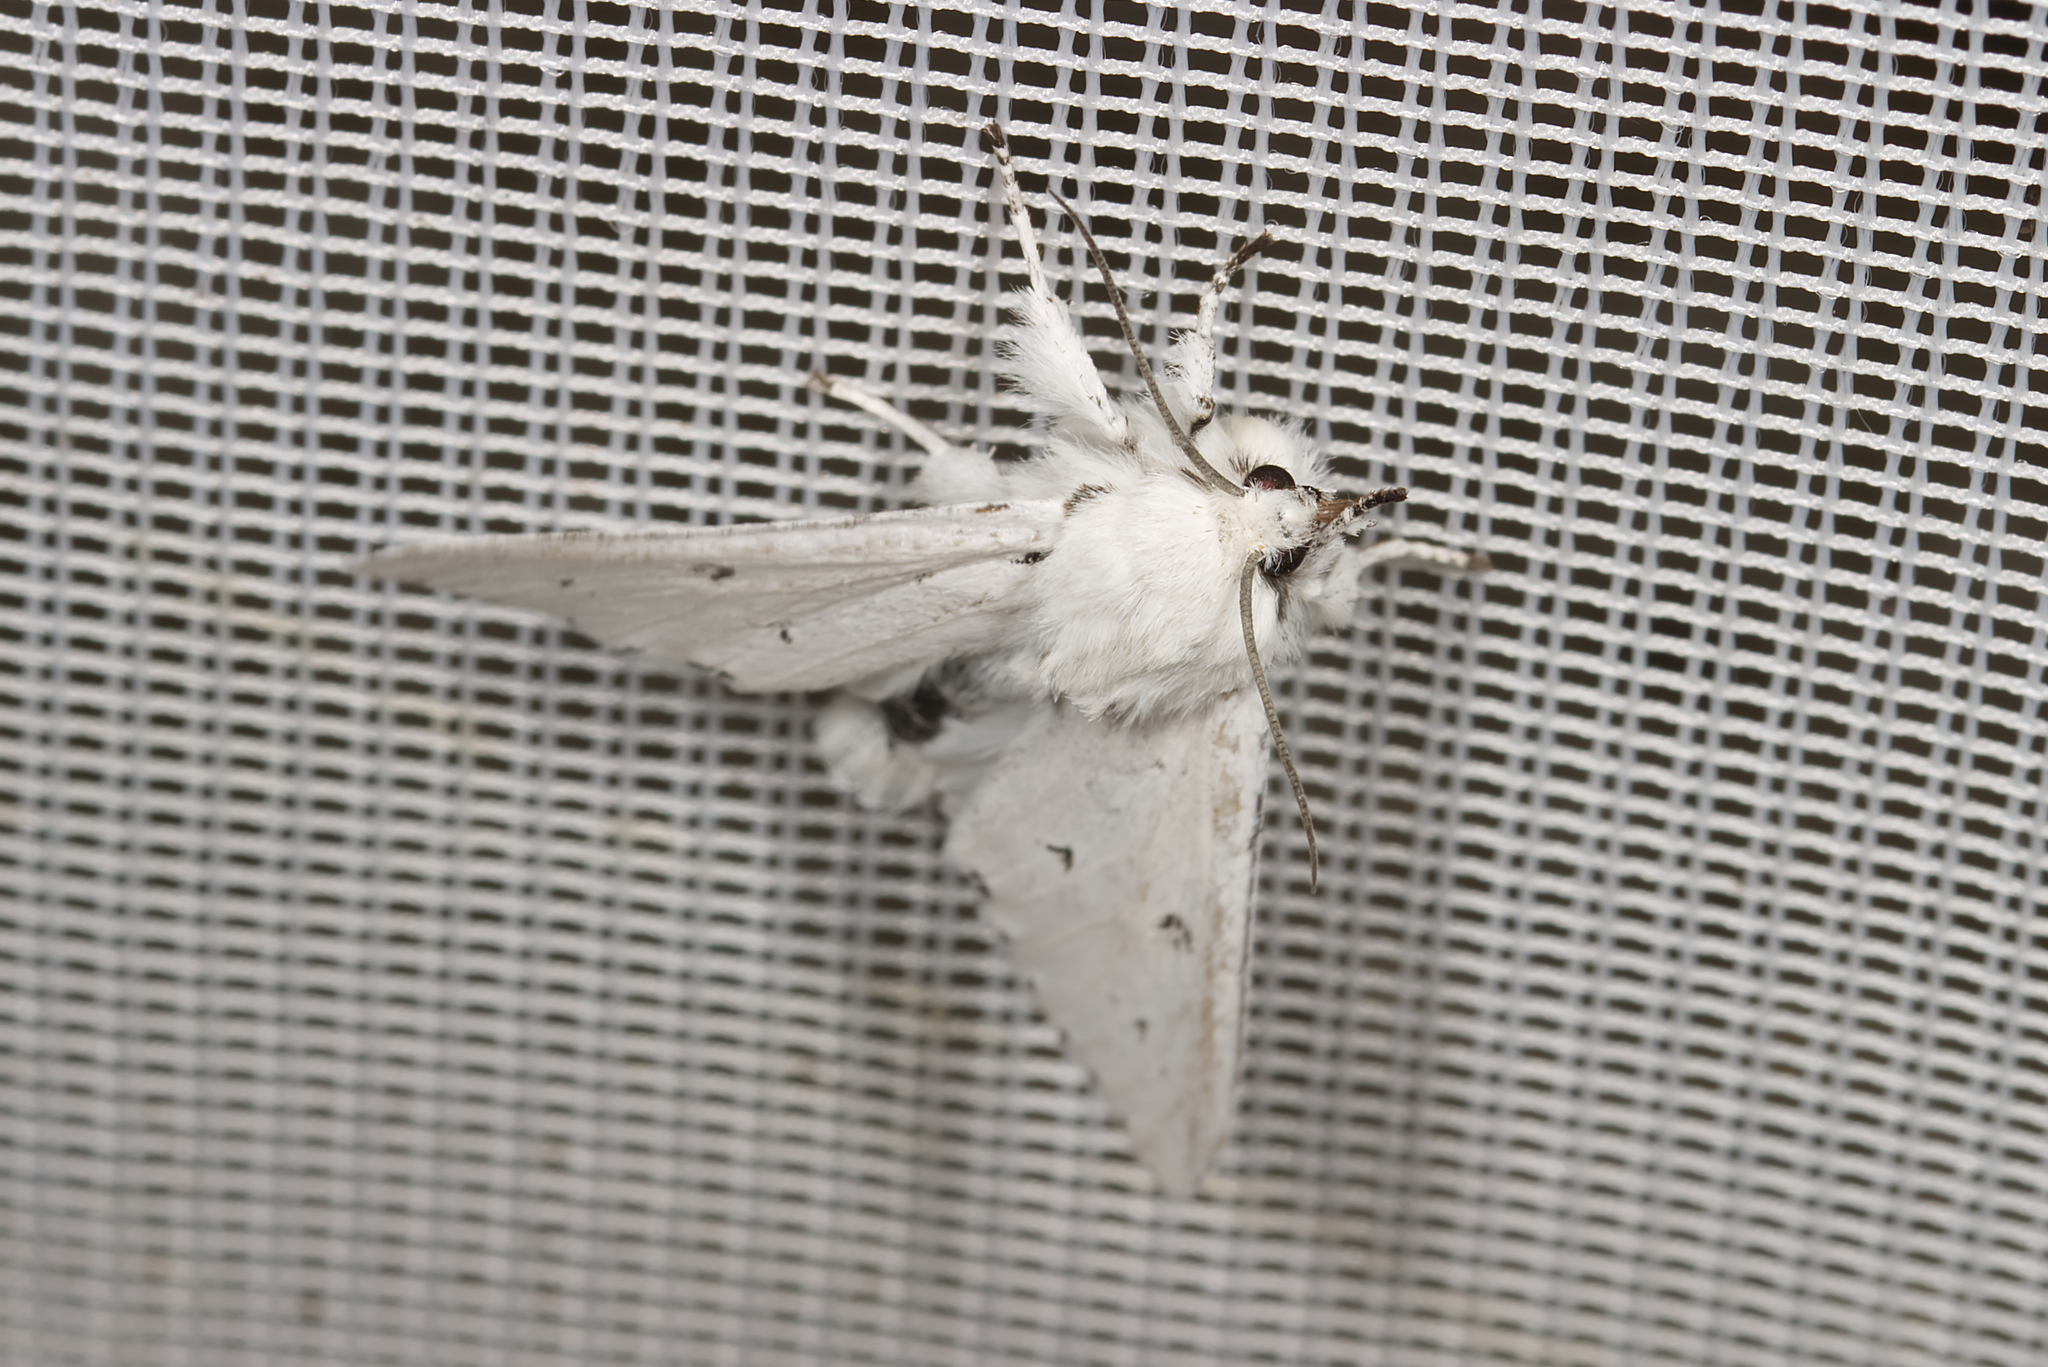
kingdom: Animalia
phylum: Arthropoda
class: Insecta
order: Lepidoptera
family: Noctuidae
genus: Acronicta
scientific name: Acronicta leporina
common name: Miller
